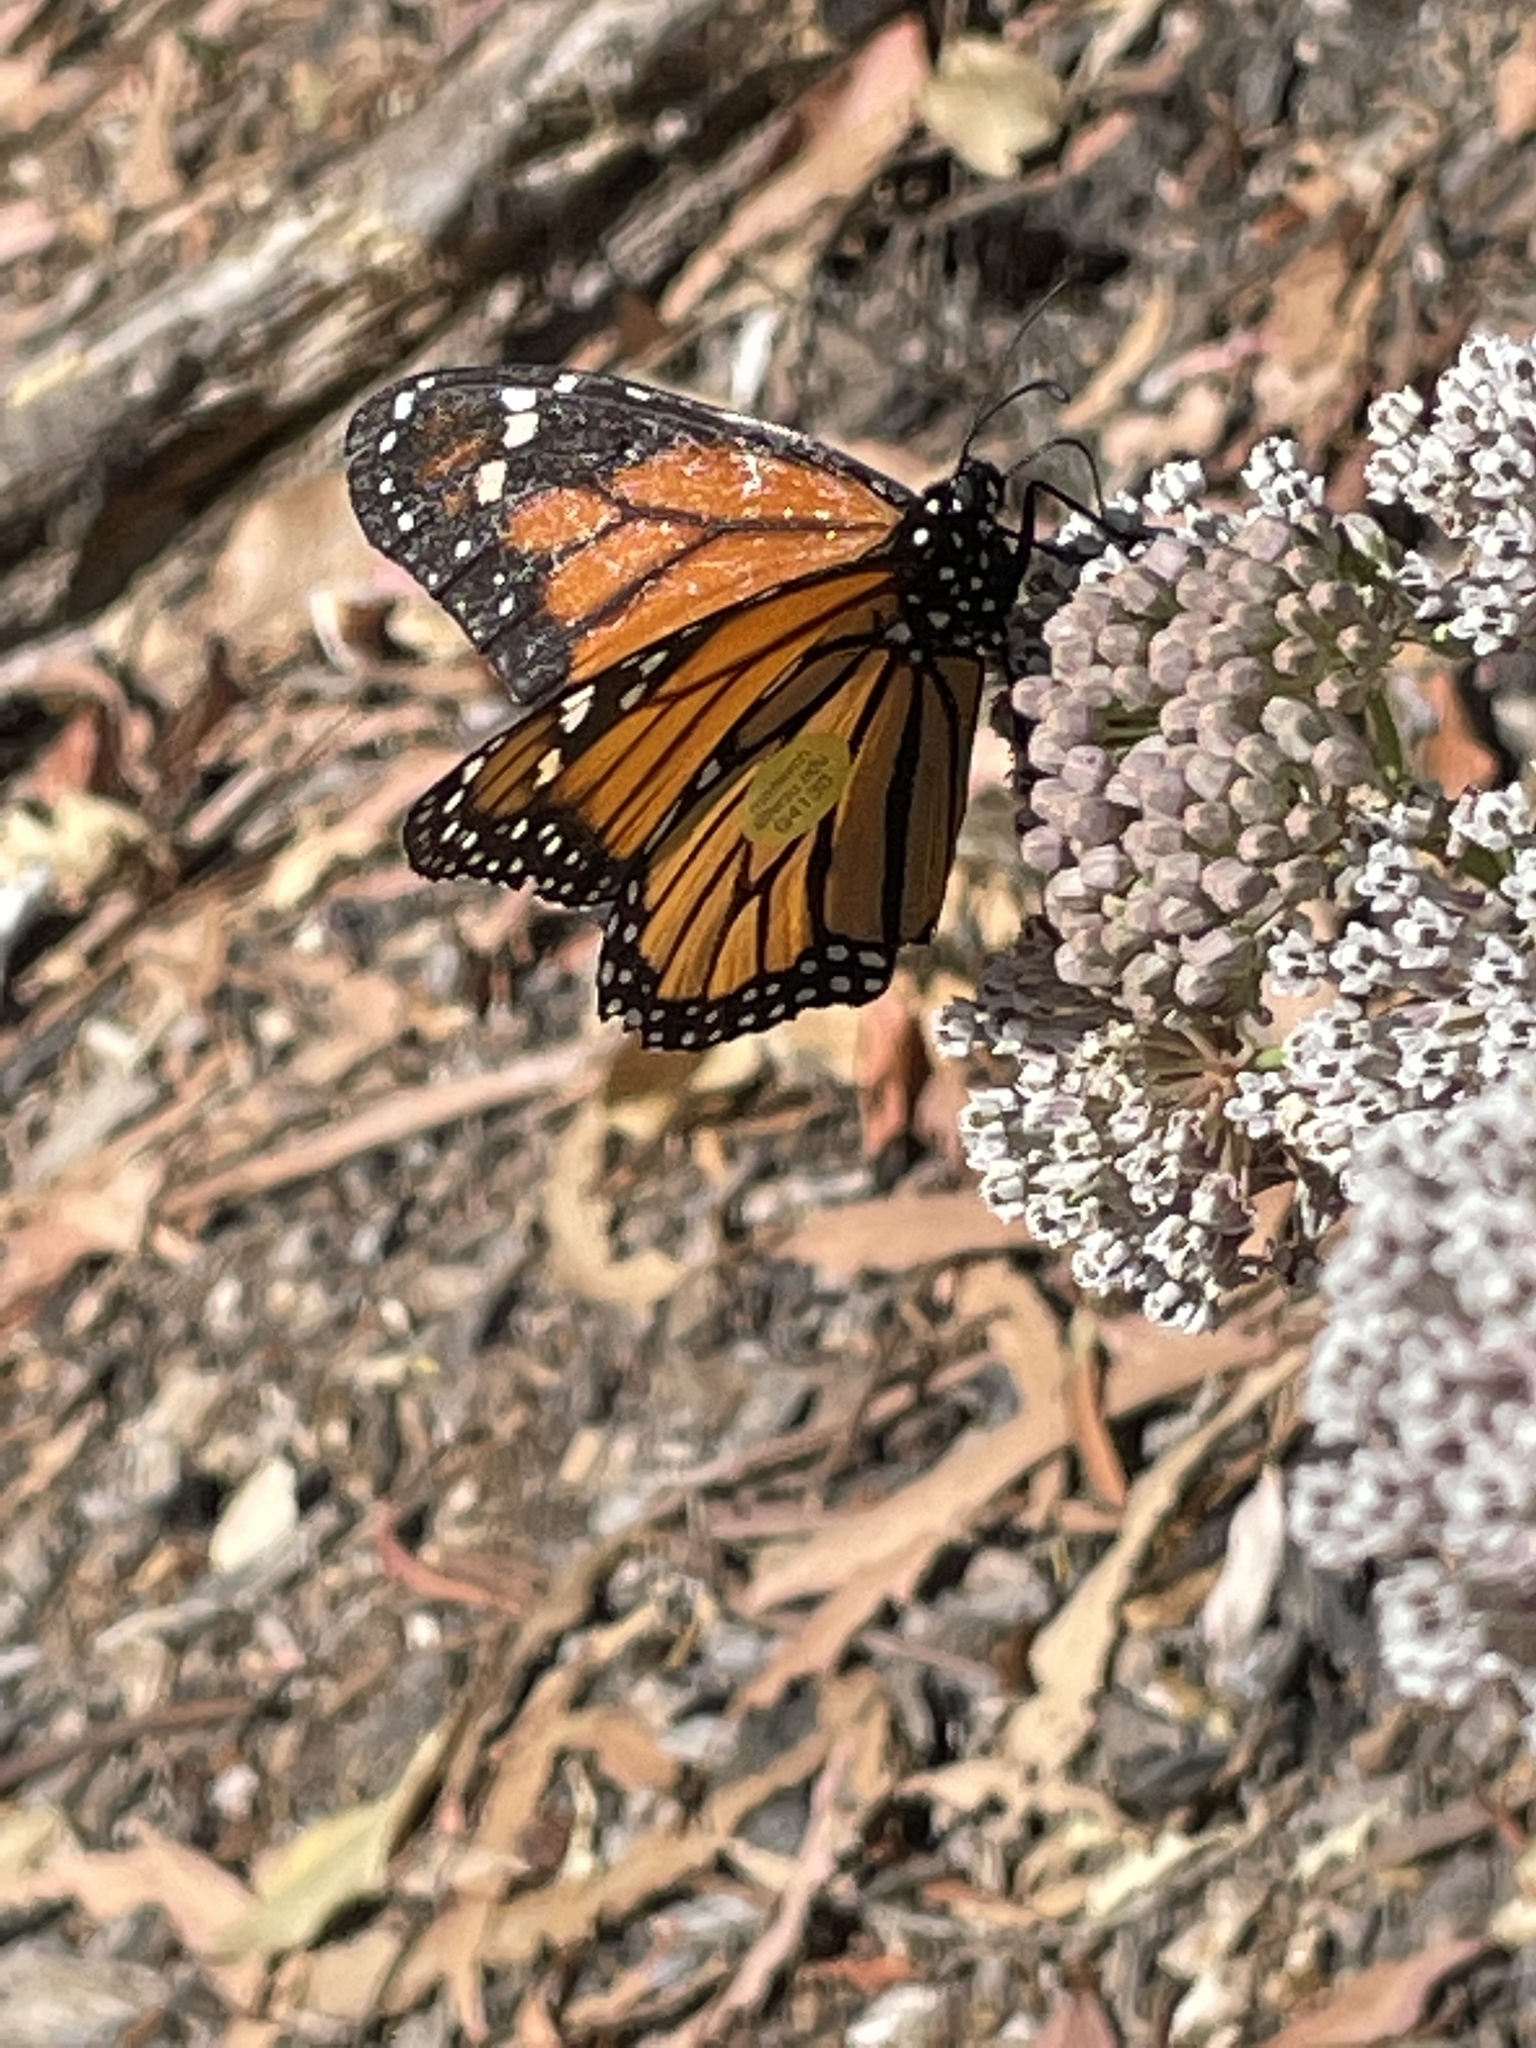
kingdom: Animalia
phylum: Arthropoda
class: Insecta
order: Lepidoptera
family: Nymphalidae
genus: Danaus
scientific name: Danaus plexippus
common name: Monarch
